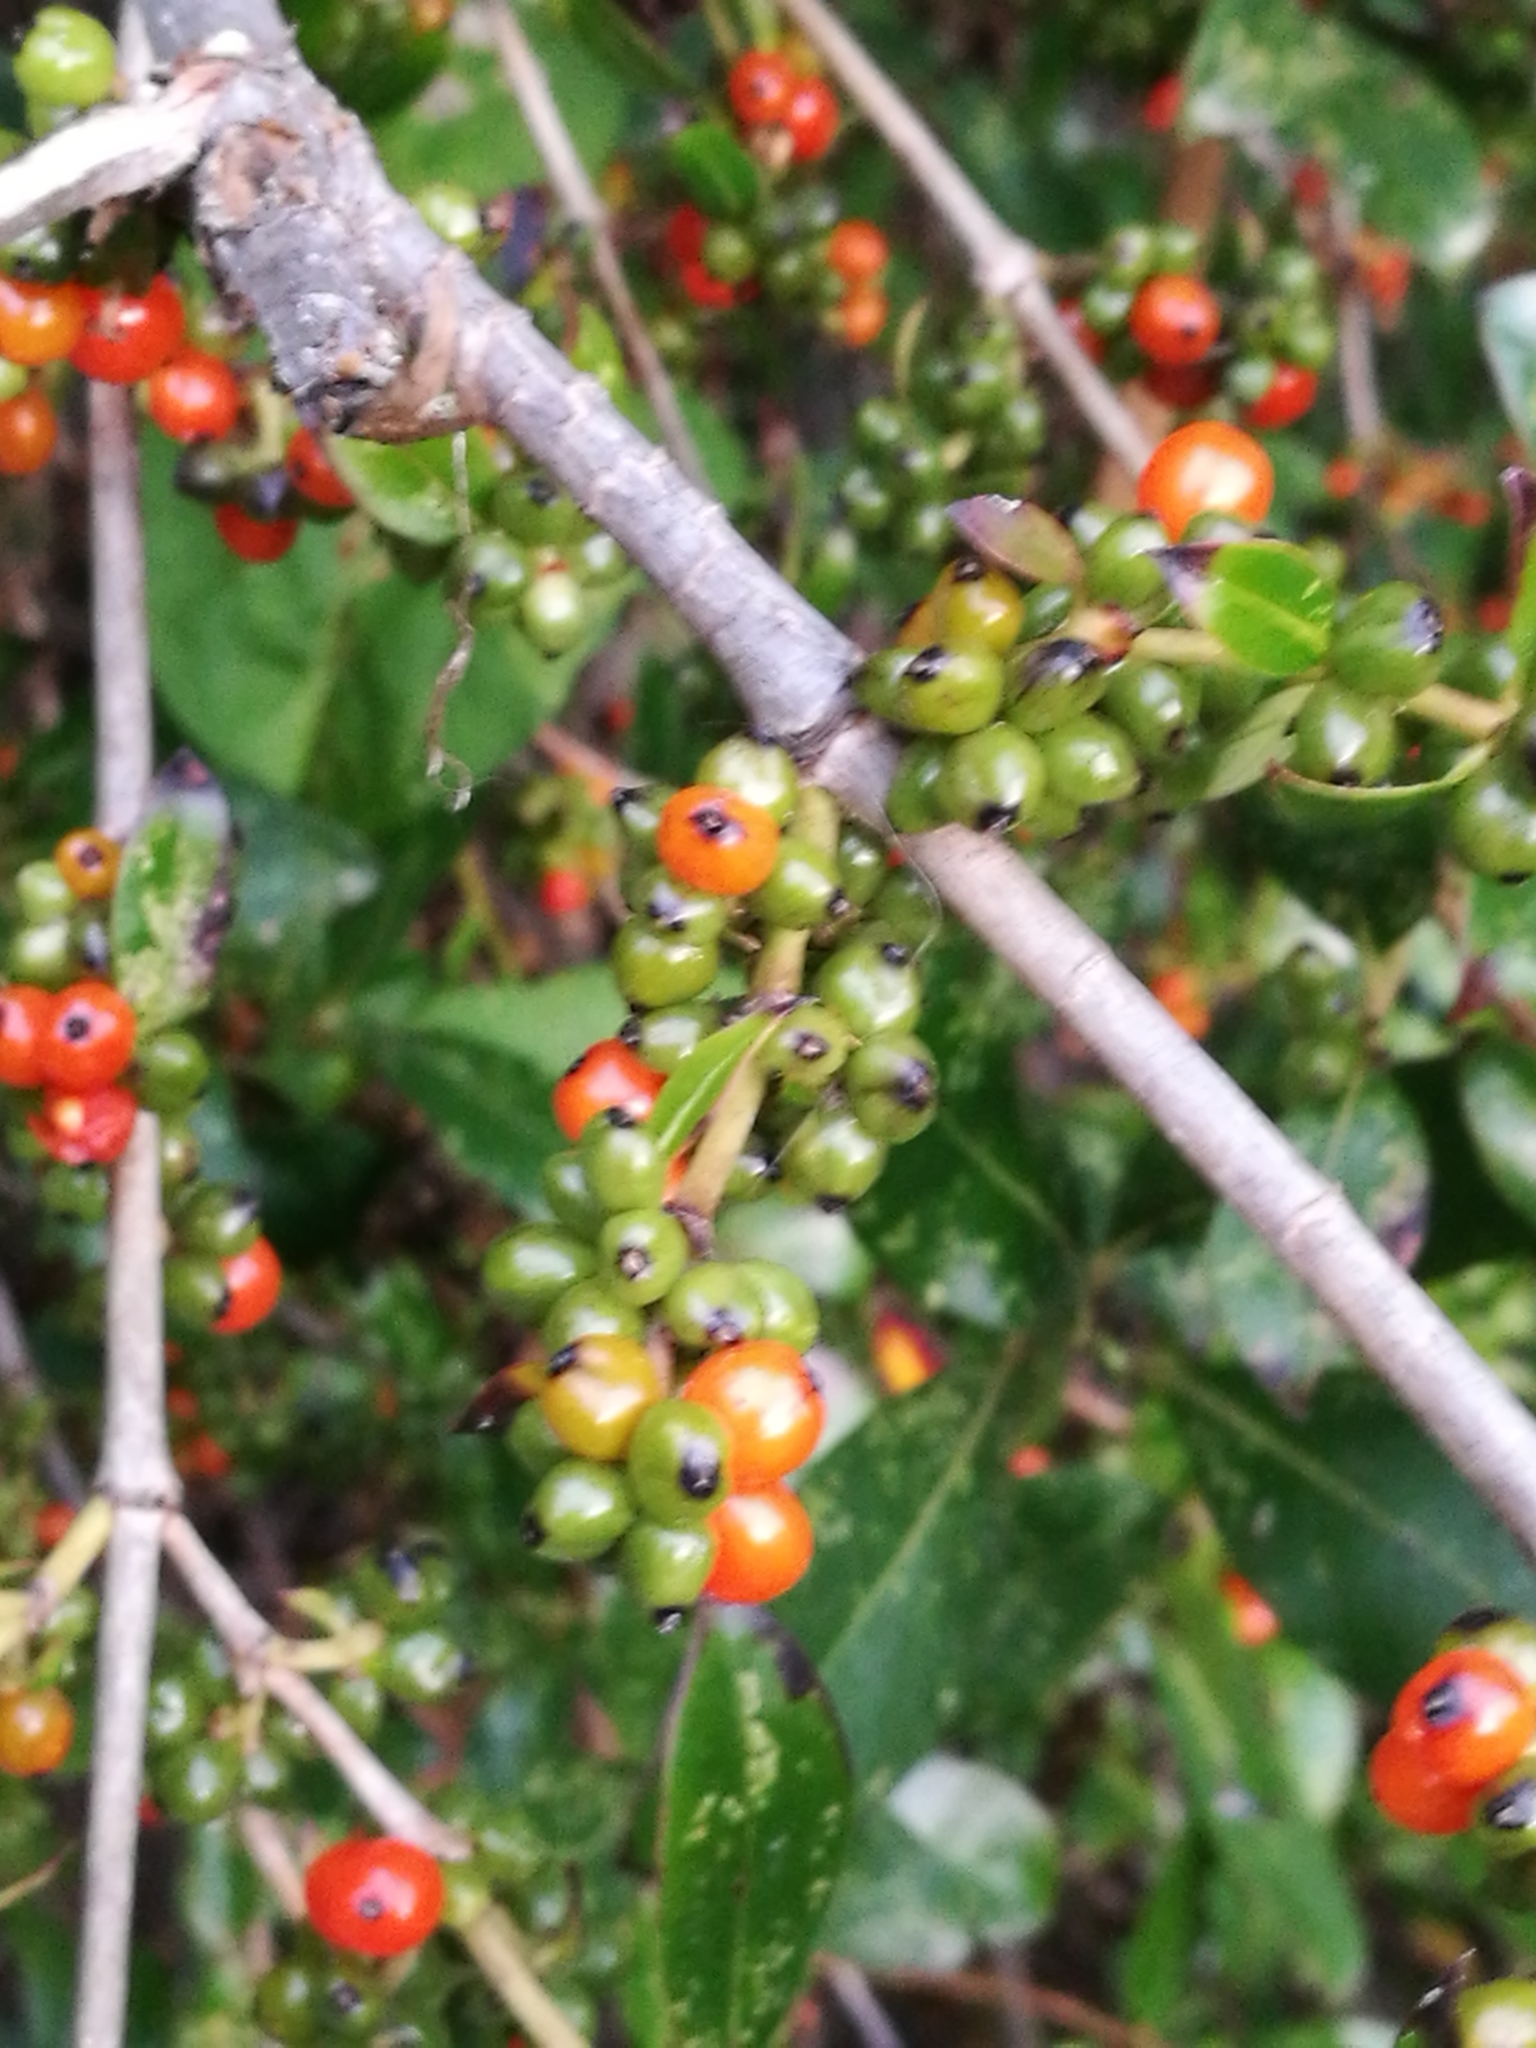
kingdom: Plantae
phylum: Tracheophyta
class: Magnoliopsida
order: Gentianales
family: Rubiaceae
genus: Coprosma
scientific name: Coprosma robusta
